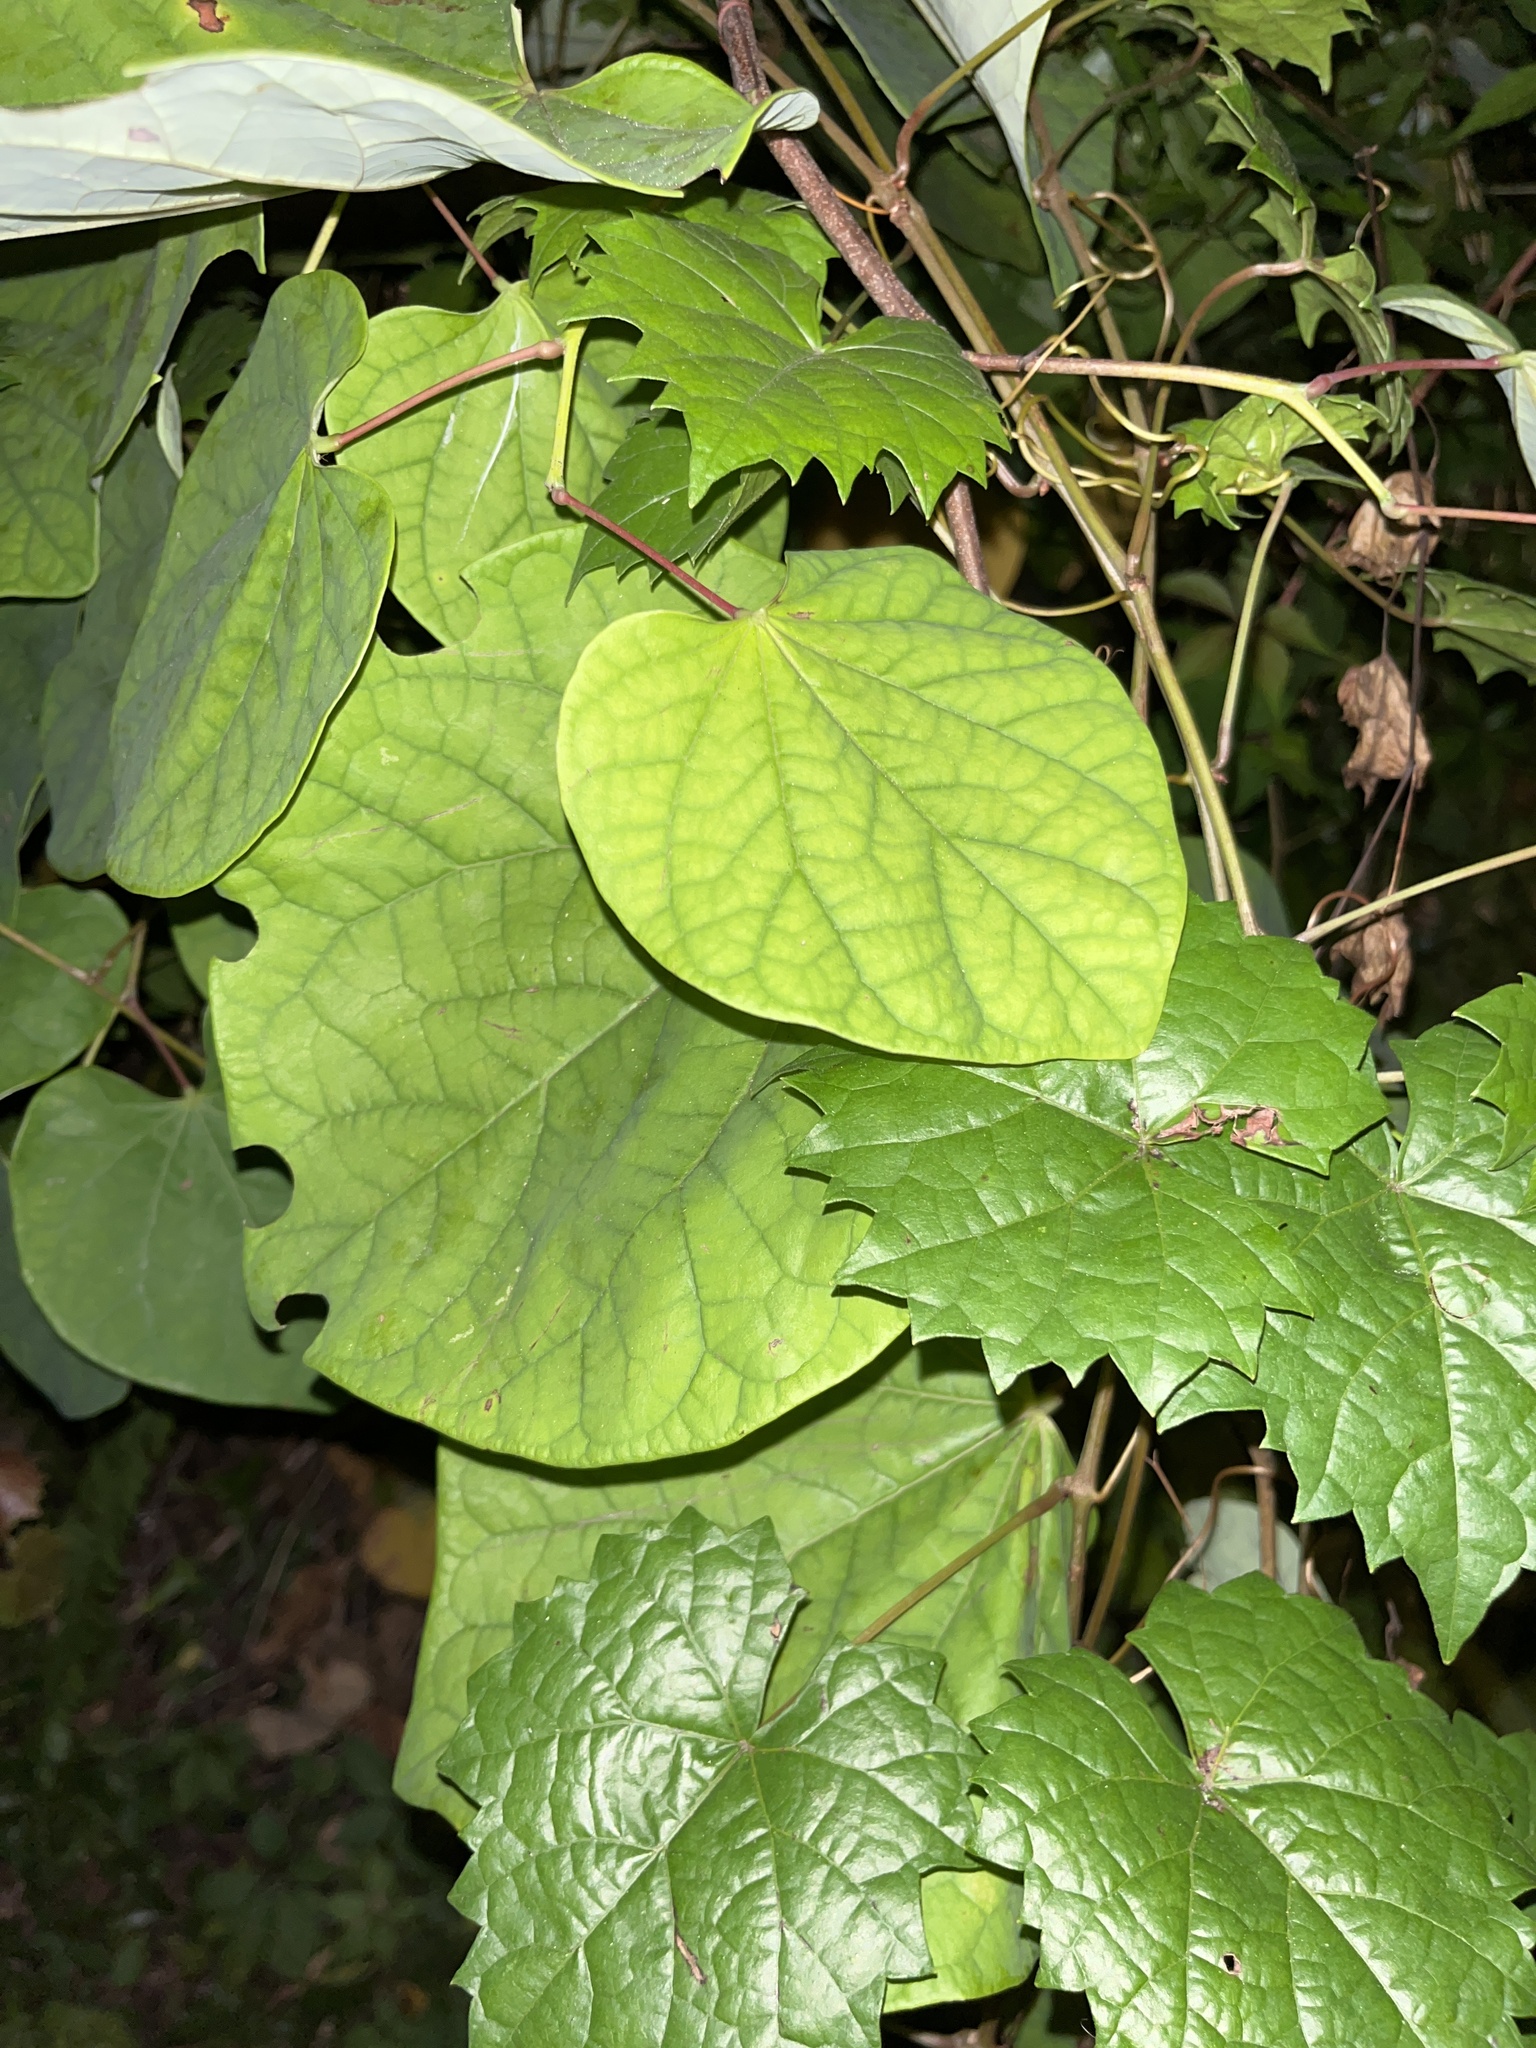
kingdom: Plantae
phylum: Tracheophyta
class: Magnoliopsida
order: Fabales
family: Fabaceae
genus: Cercis
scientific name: Cercis canadensis
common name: Eastern redbud
